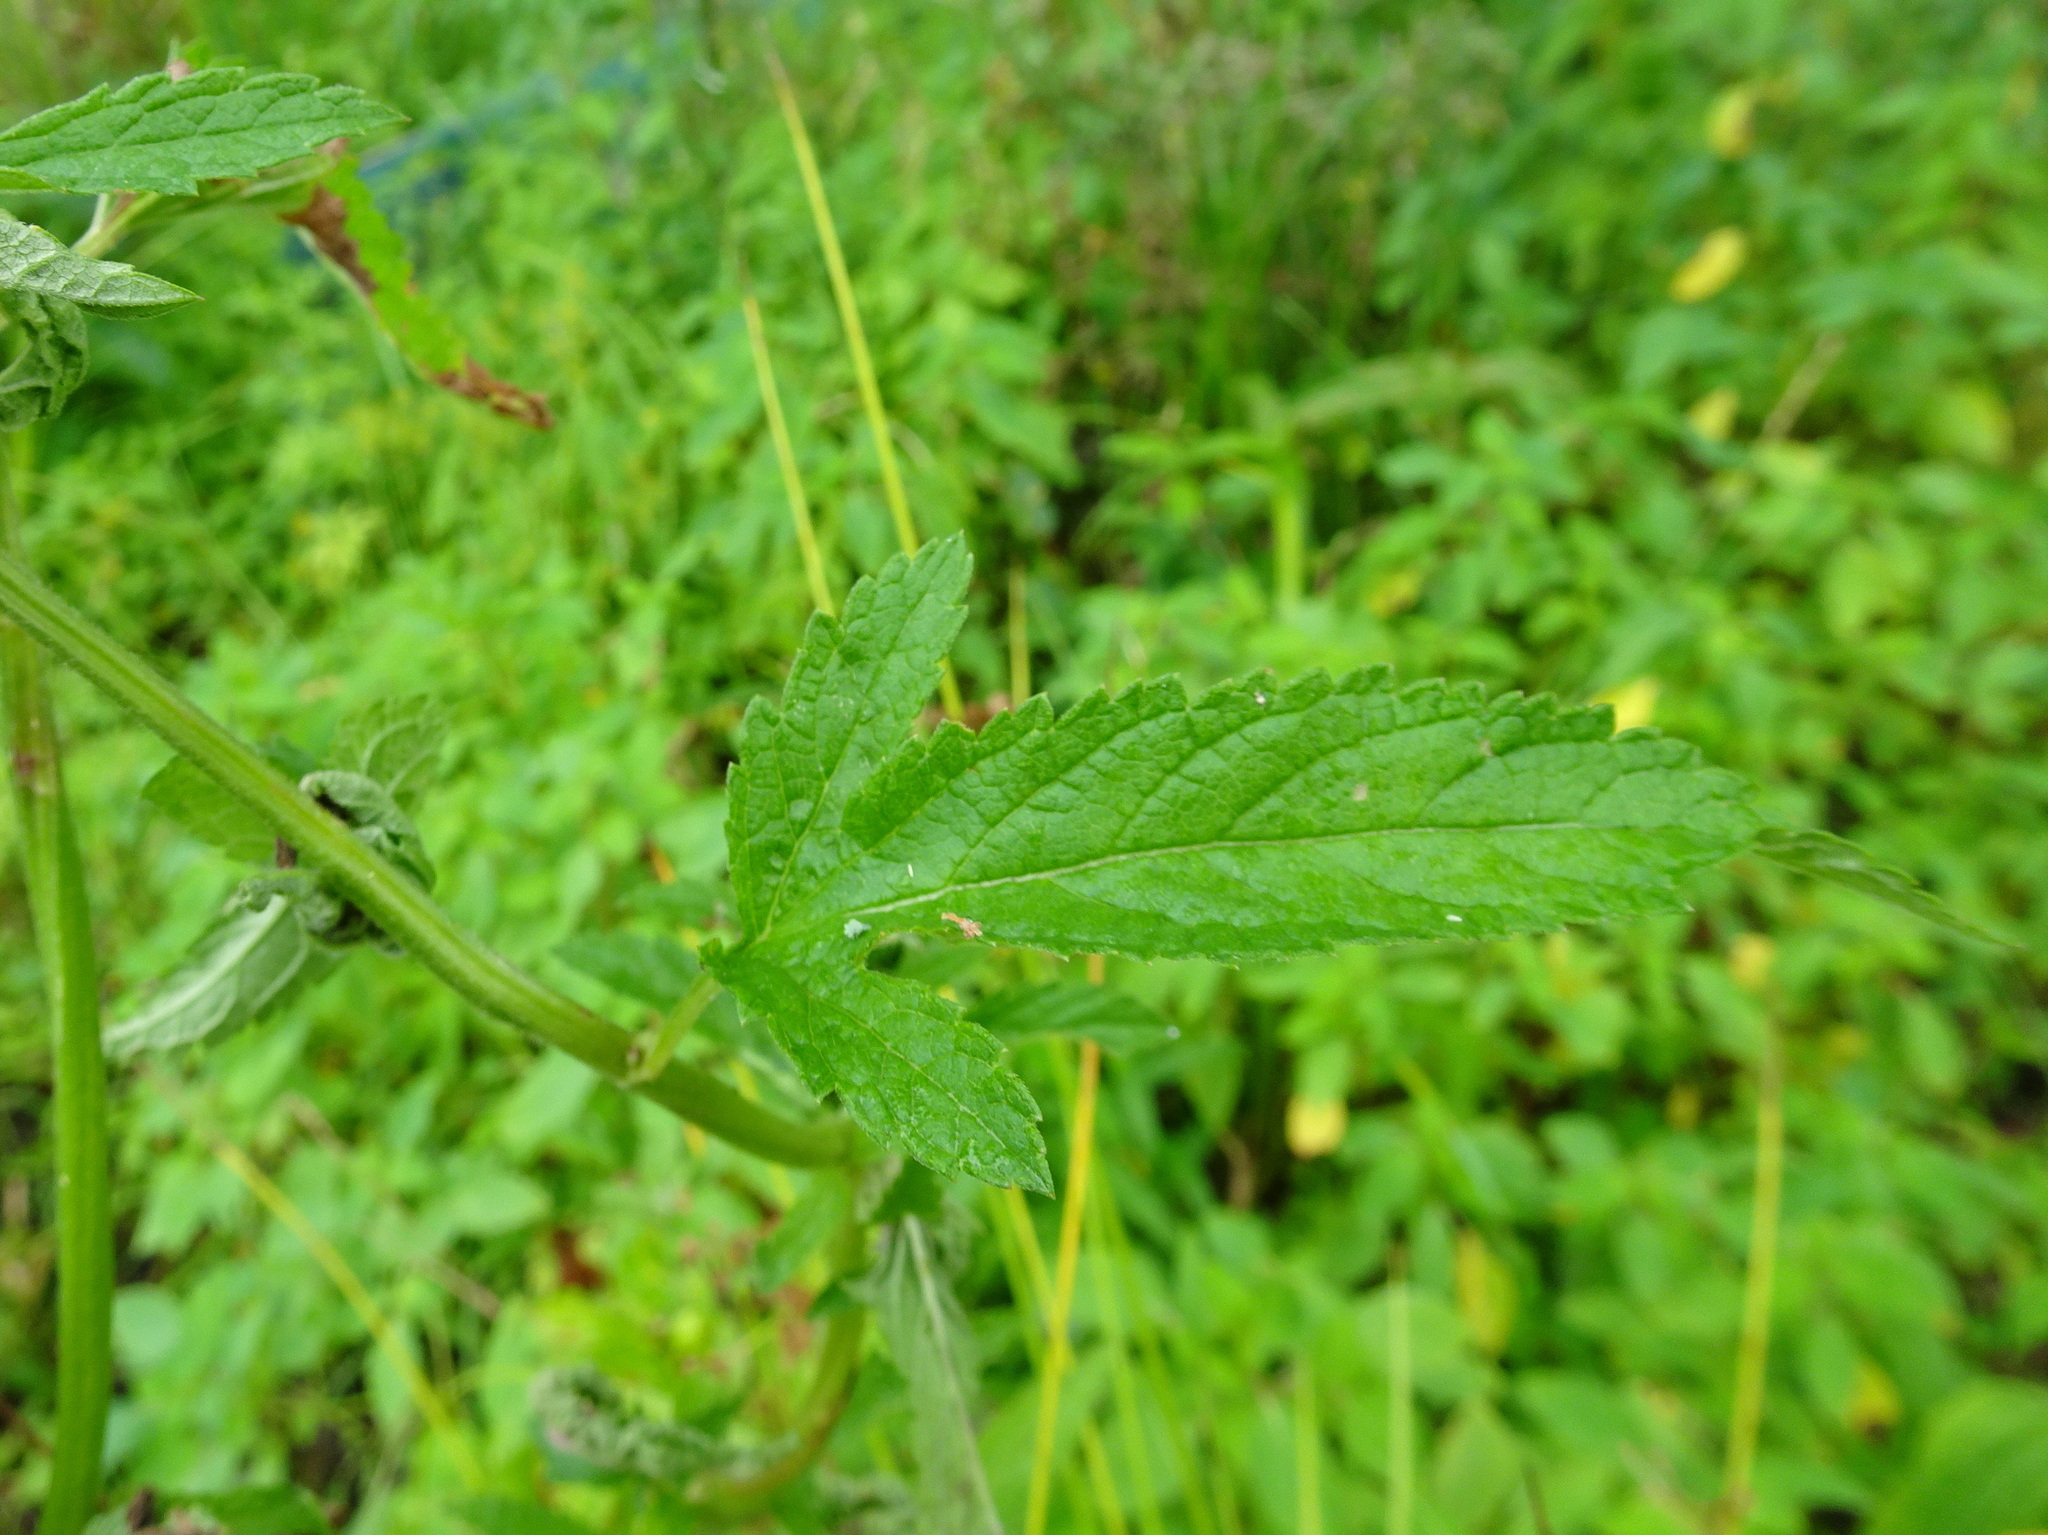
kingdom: Plantae
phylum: Tracheophyta
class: Magnoliopsida
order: Lamiales
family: Verbenaceae
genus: Verbena
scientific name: Verbena hastata
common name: American blue vervain
